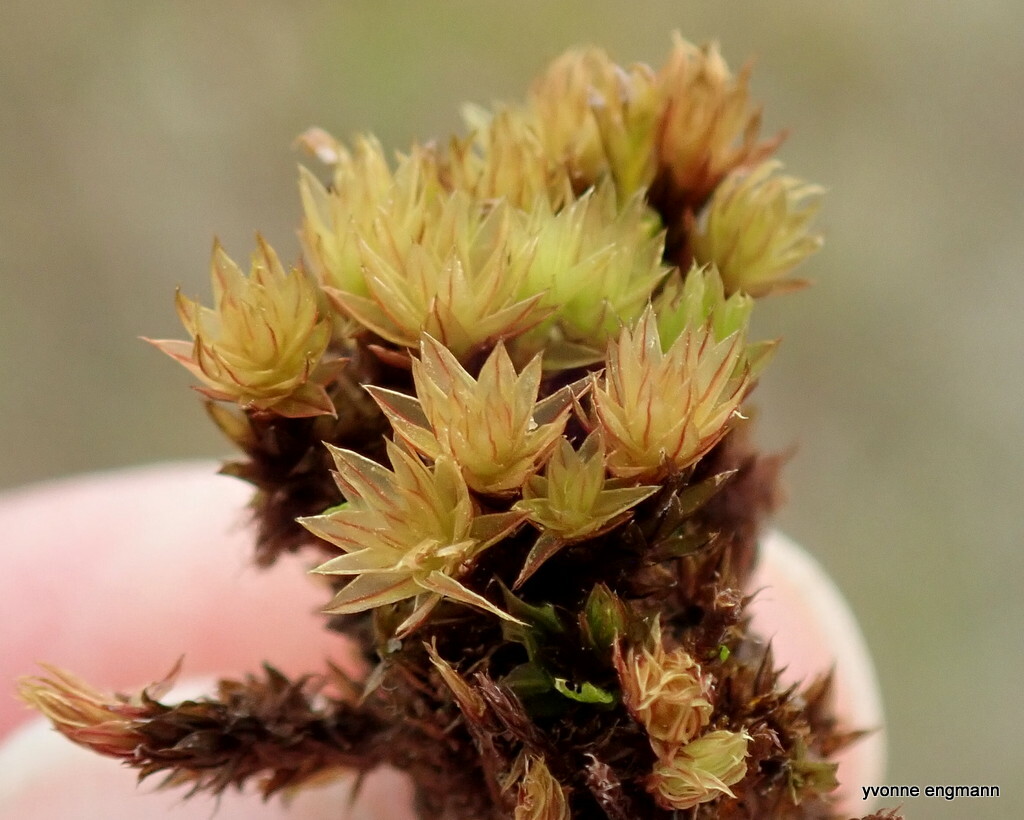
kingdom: Plantae
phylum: Bryophyta
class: Bryopsida
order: Bryales
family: Bryaceae
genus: Ptychostomum
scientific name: Ptychostomum pseudotriquetrum
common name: Long-leaved thread moss
